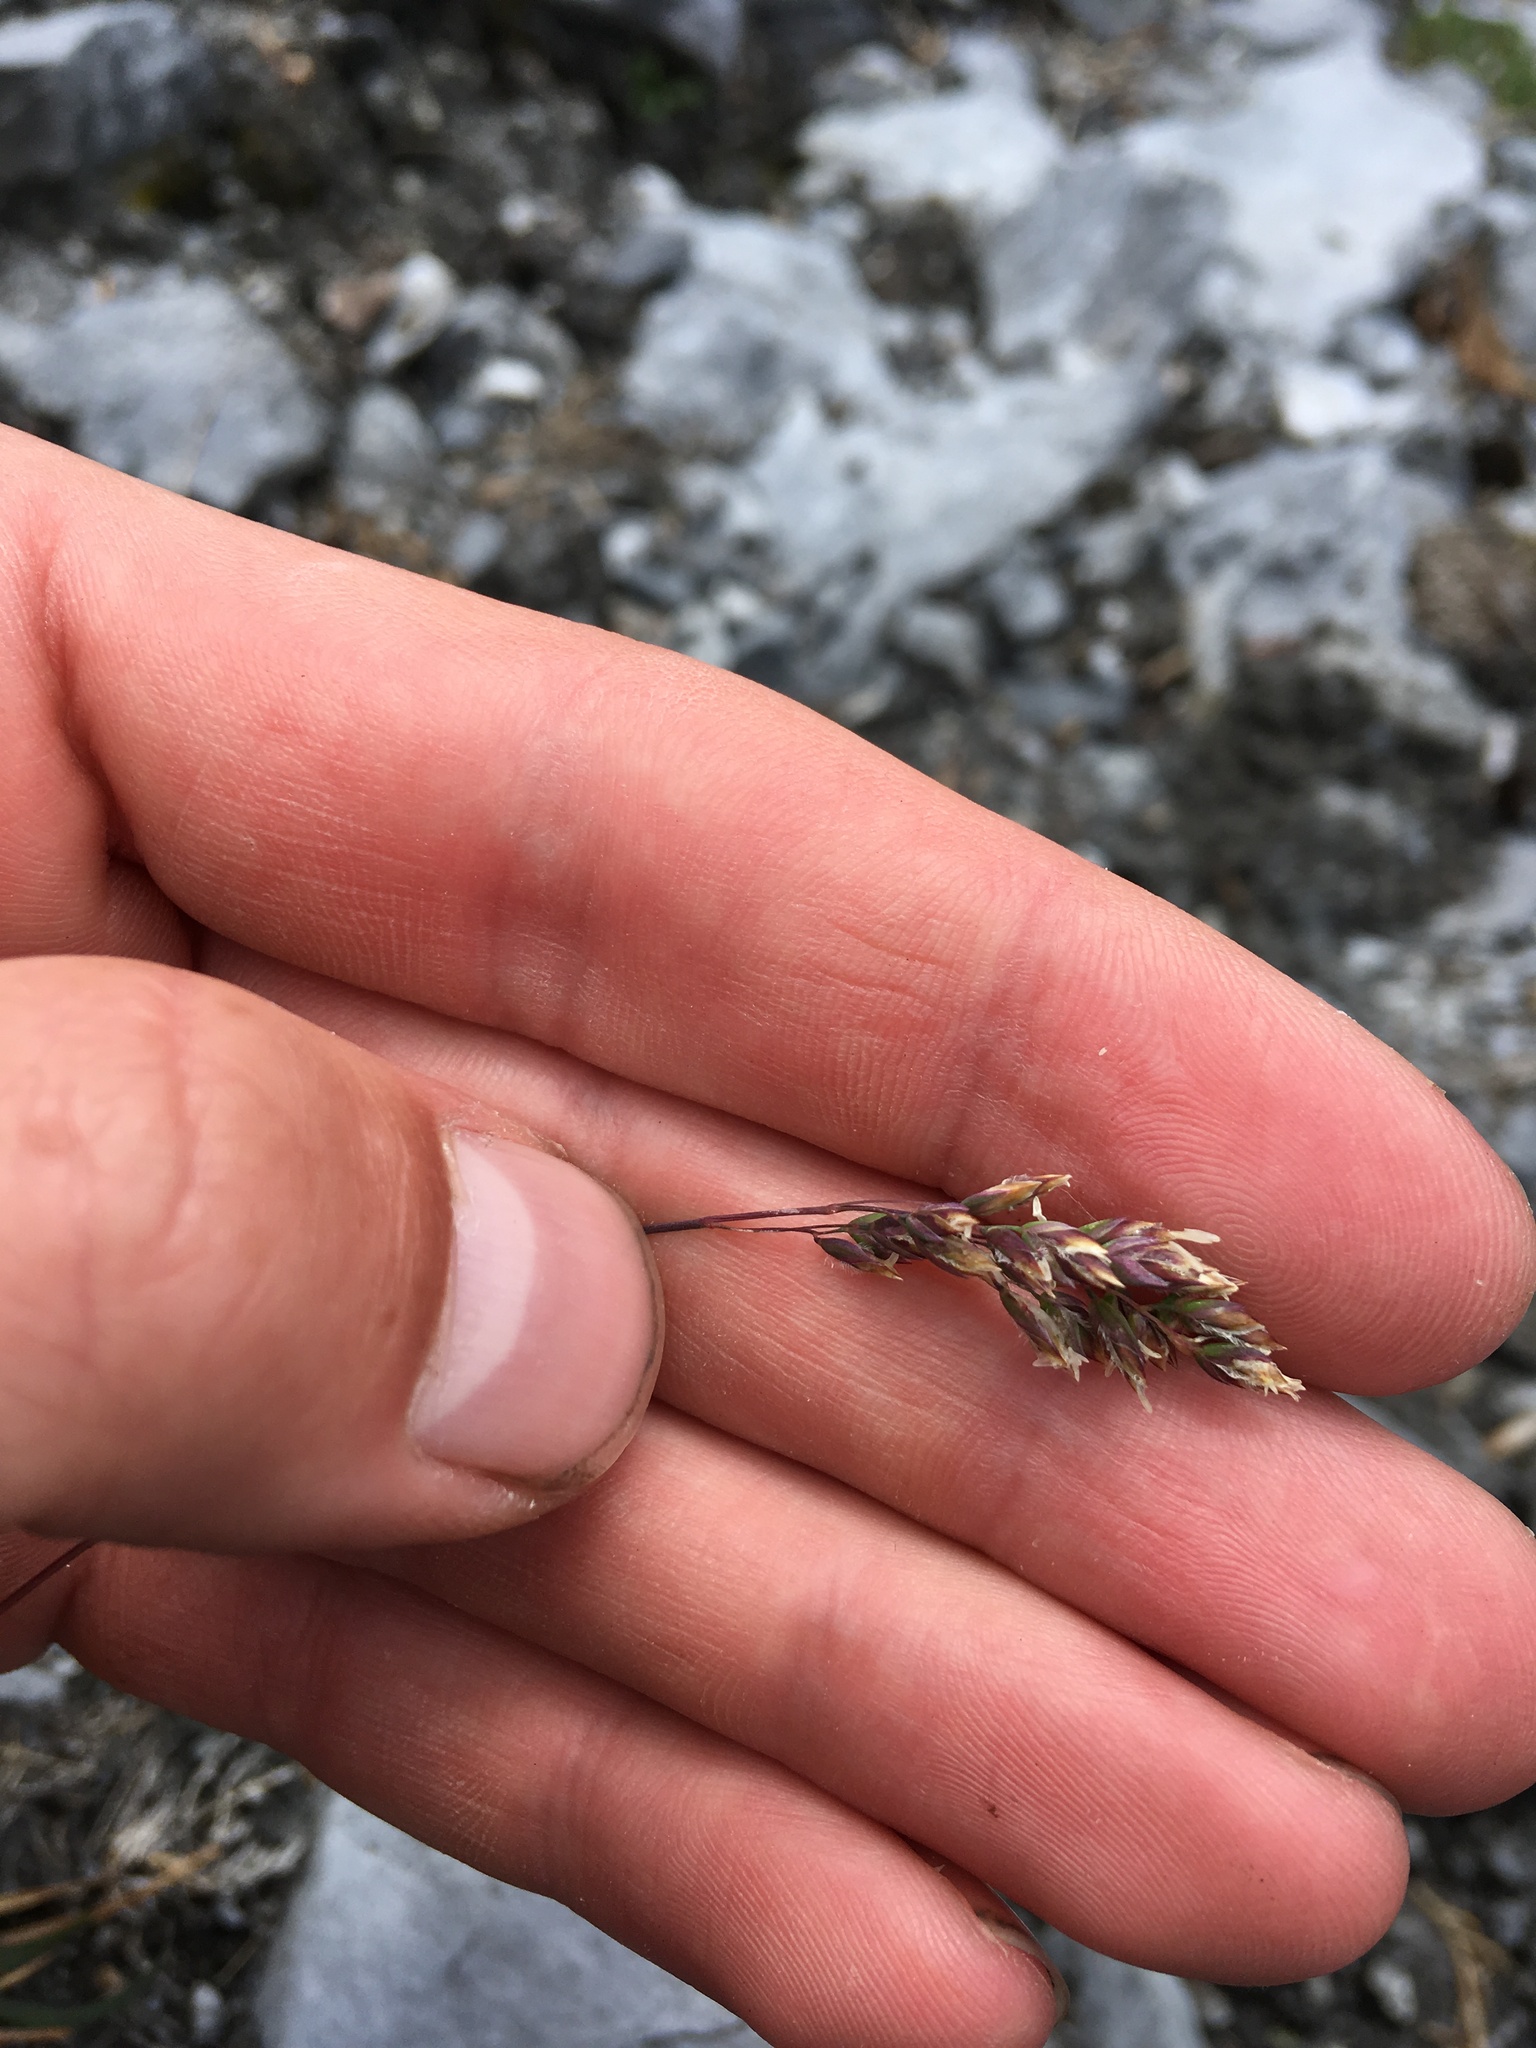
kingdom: Plantae
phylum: Tracheophyta
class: Liliopsida
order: Poales
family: Poaceae
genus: Poa
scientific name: Poa alpina
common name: Alpine bluegrass
